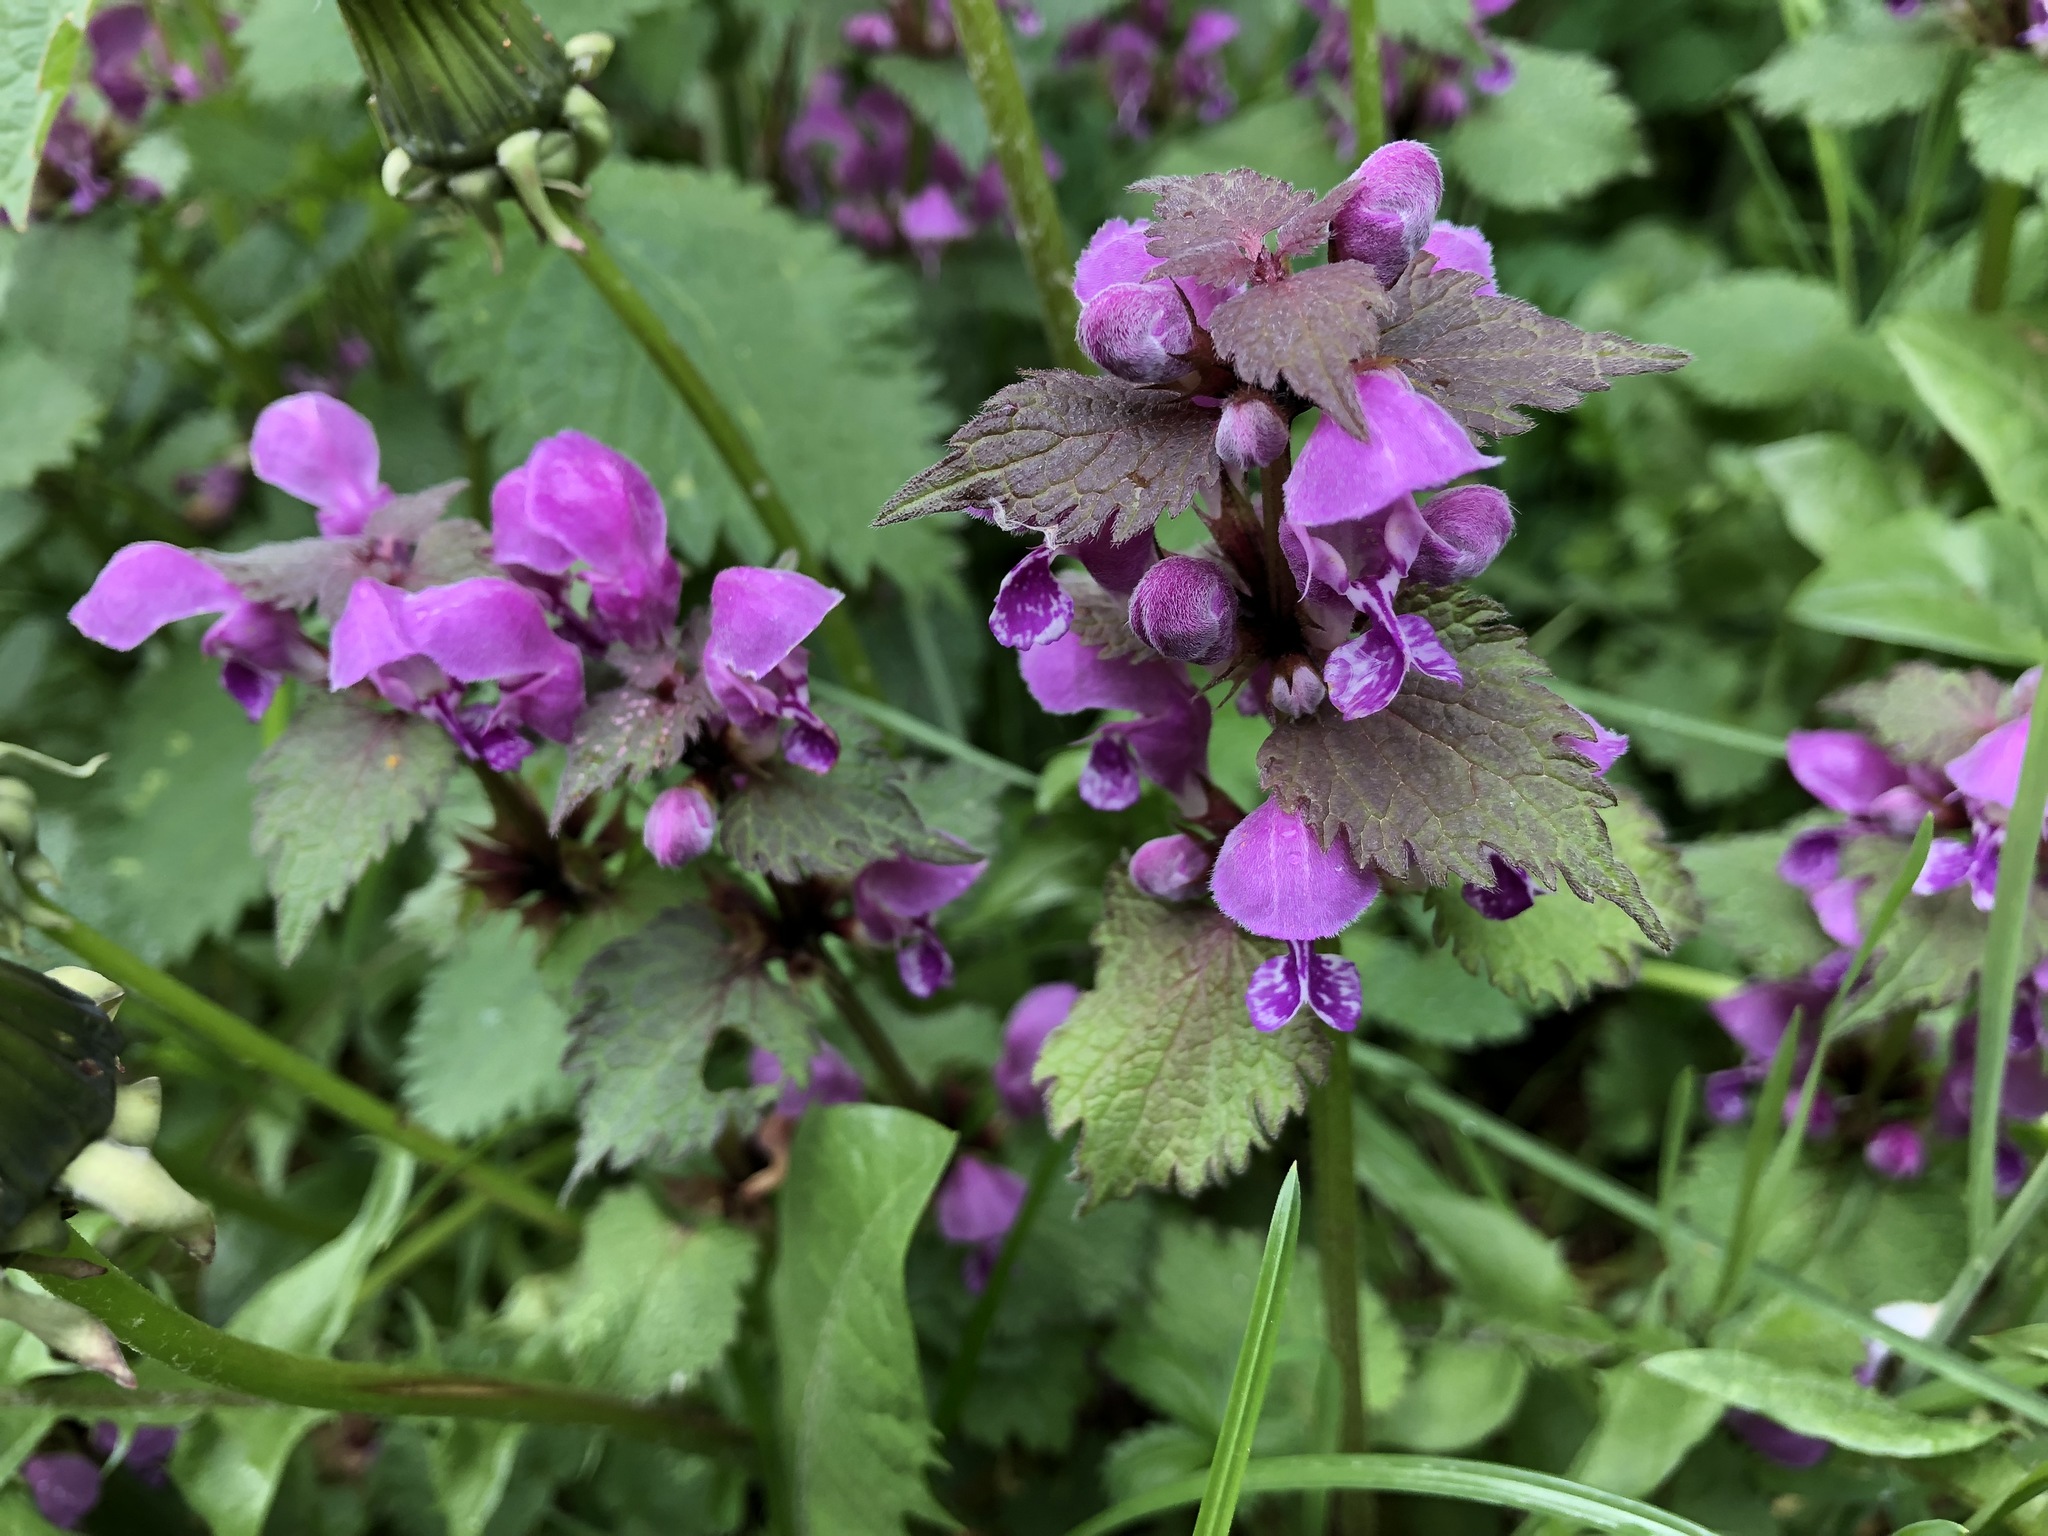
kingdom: Plantae
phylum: Tracheophyta
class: Magnoliopsida
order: Lamiales
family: Lamiaceae
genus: Lamium
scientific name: Lamium maculatum
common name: Spotted dead-nettle
